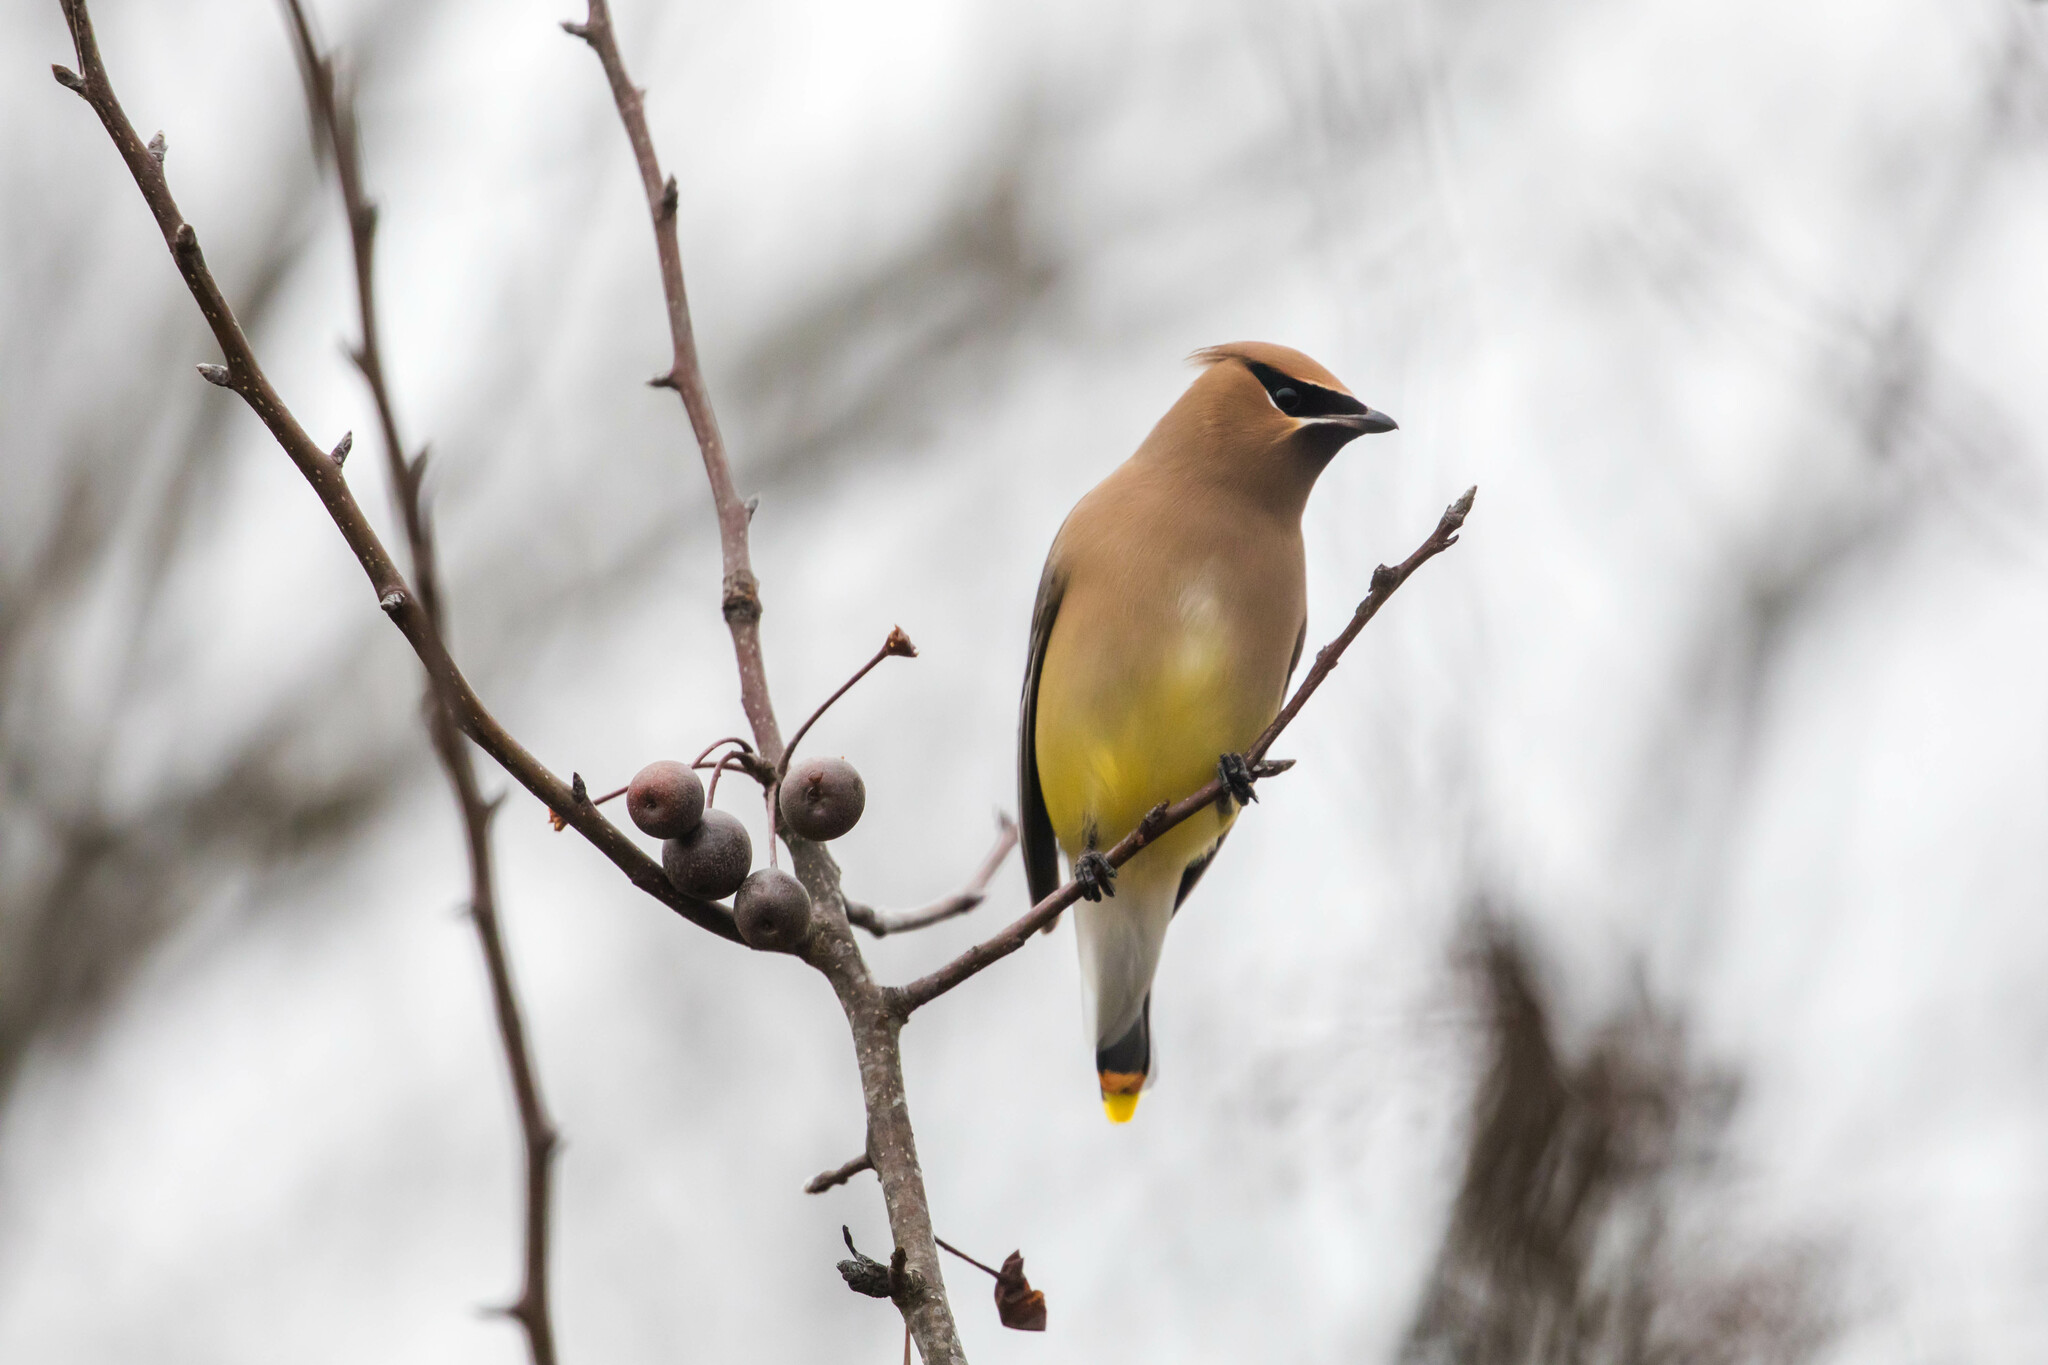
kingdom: Animalia
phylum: Chordata
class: Aves
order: Passeriformes
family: Bombycillidae
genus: Bombycilla
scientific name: Bombycilla cedrorum
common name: Cedar waxwing
